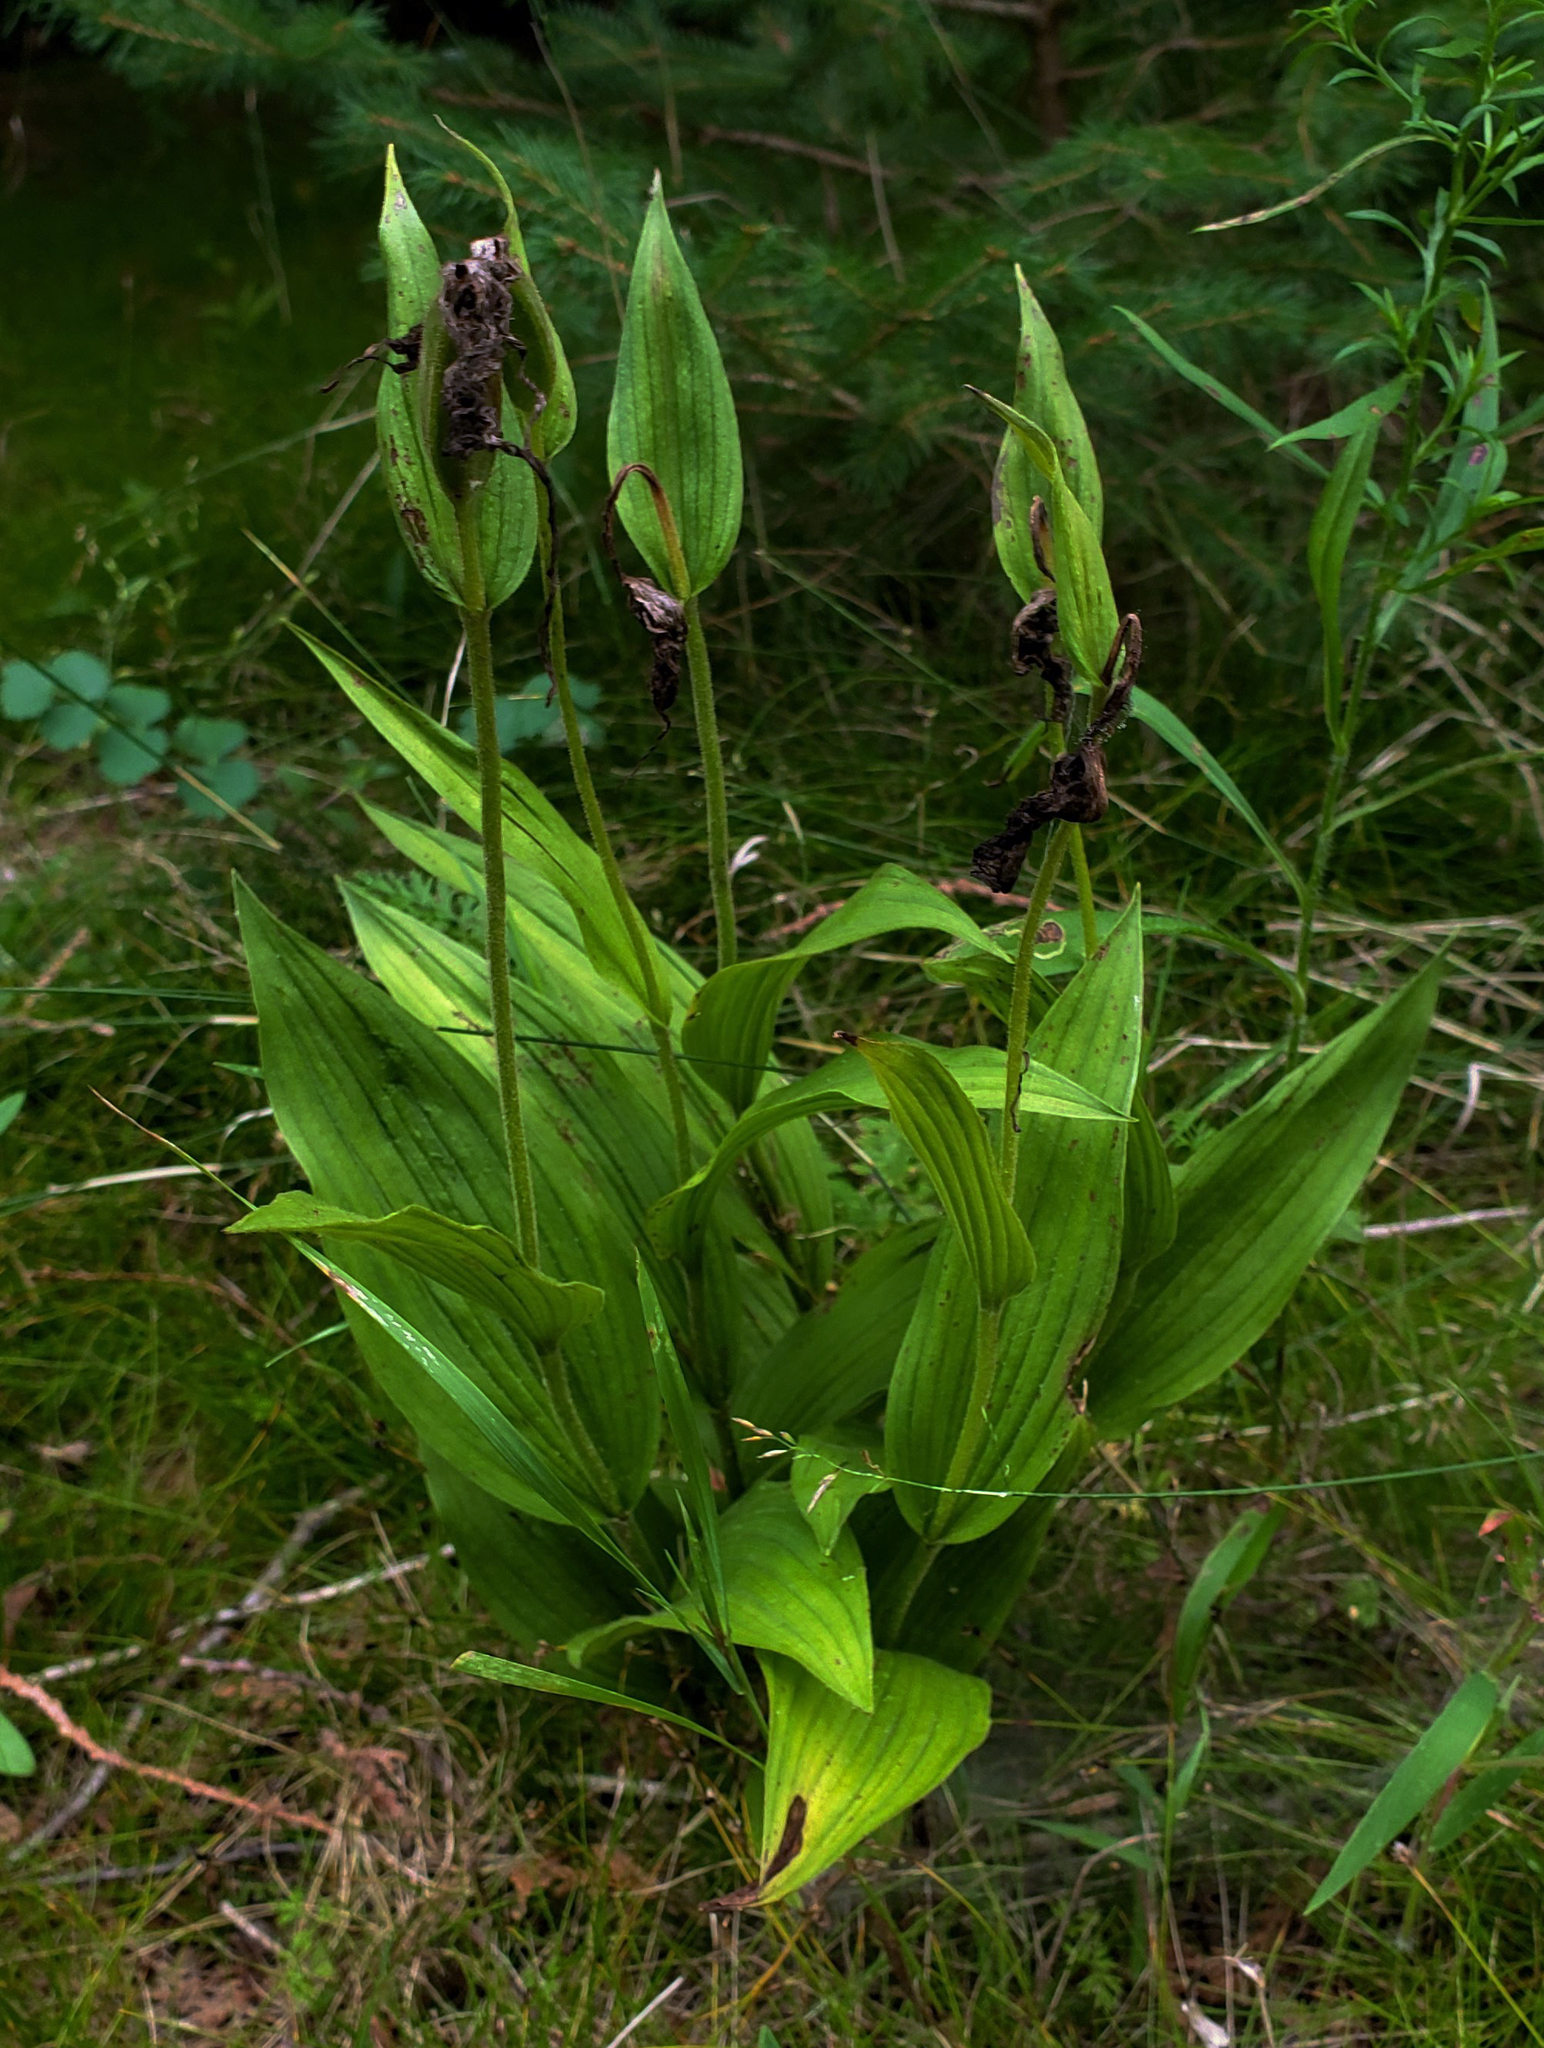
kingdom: Plantae
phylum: Tracheophyta
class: Liliopsida
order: Asparagales
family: Orchidaceae
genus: Cypripedium
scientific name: Cypripedium parviflorum
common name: American yellow lady's-slipper
